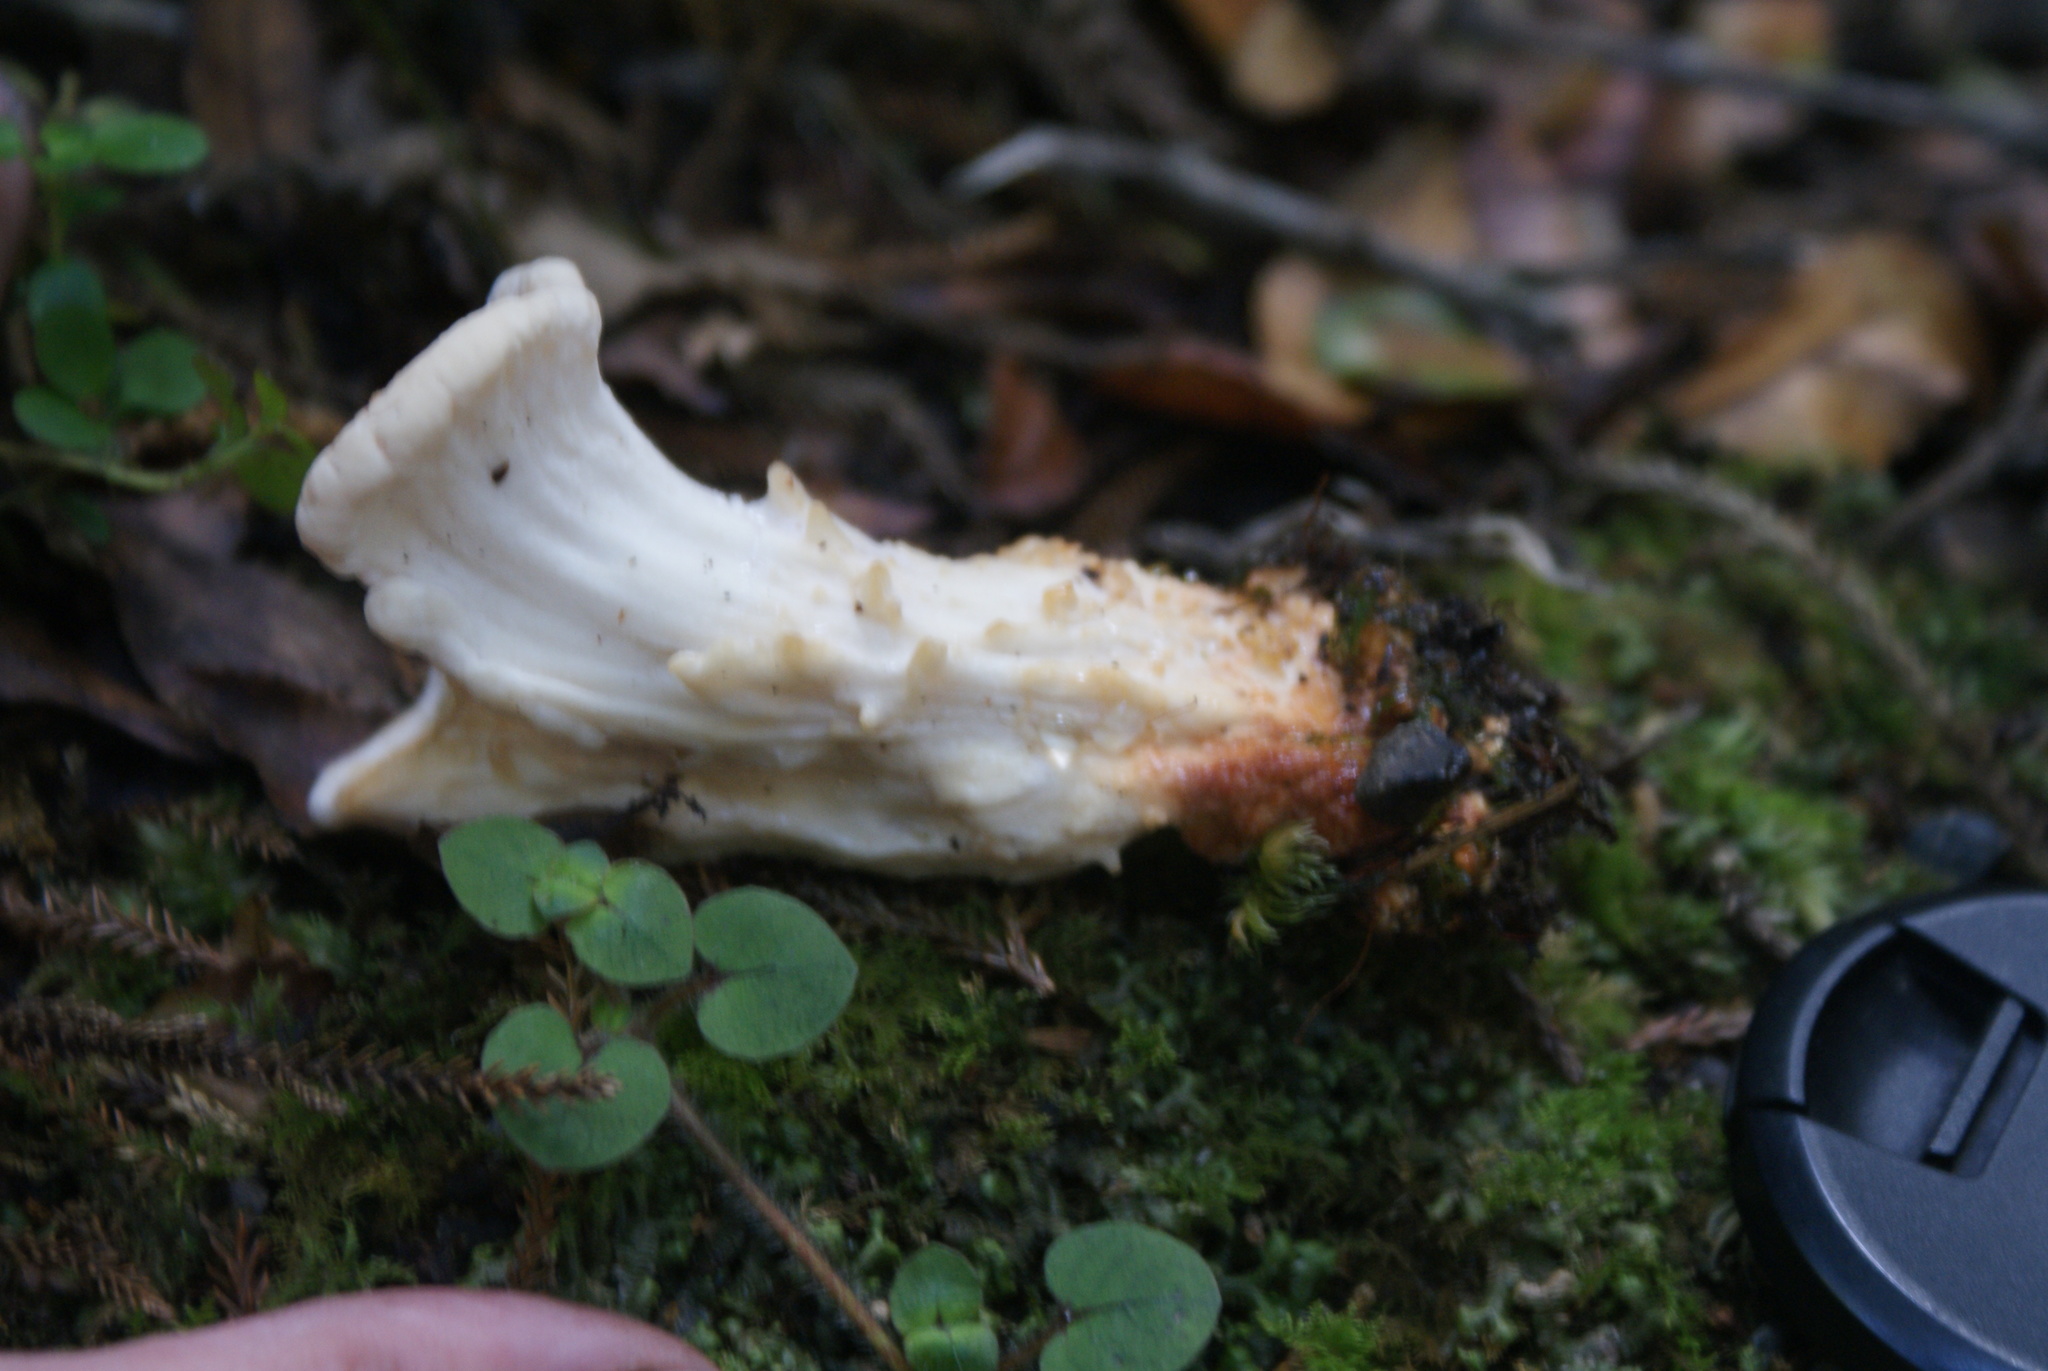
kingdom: Fungi
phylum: Basidiomycota
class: Agaricomycetes
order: Russulales
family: Bondarzewiaceae
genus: Bondarzewia
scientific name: Bondarzewia kirkii
